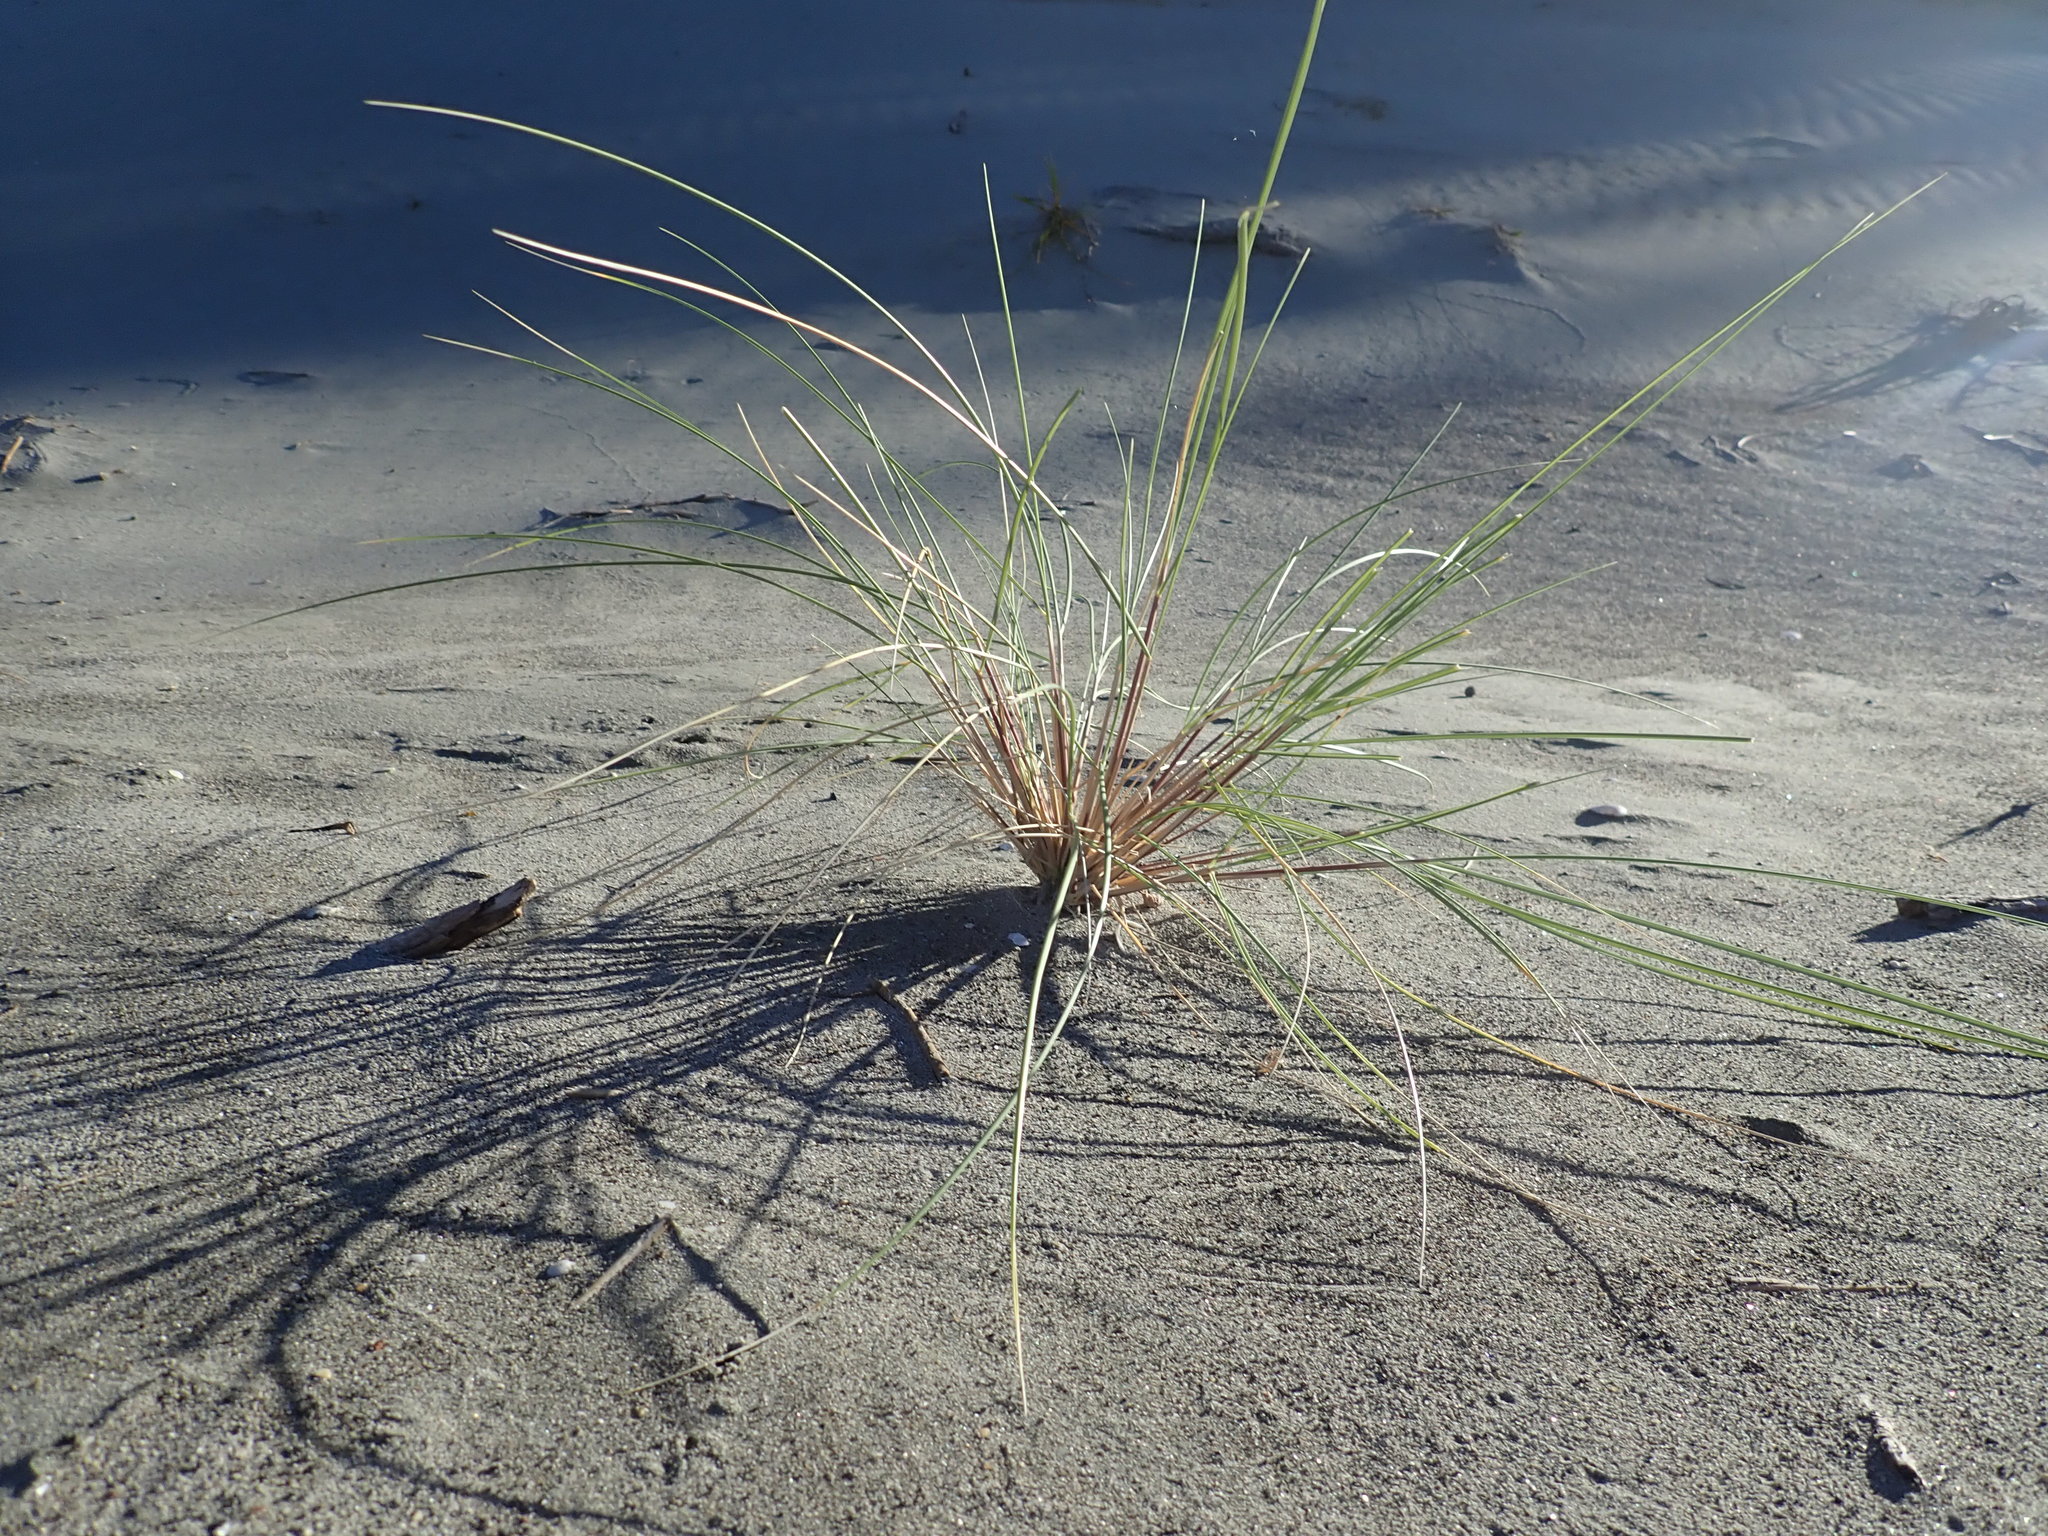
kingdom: Plantae
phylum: Tracheophyta
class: Liliopsida
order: Poales
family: Poaceae
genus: Calamagrostis
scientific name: Calamagrostis arenaria
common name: European beachgrass
